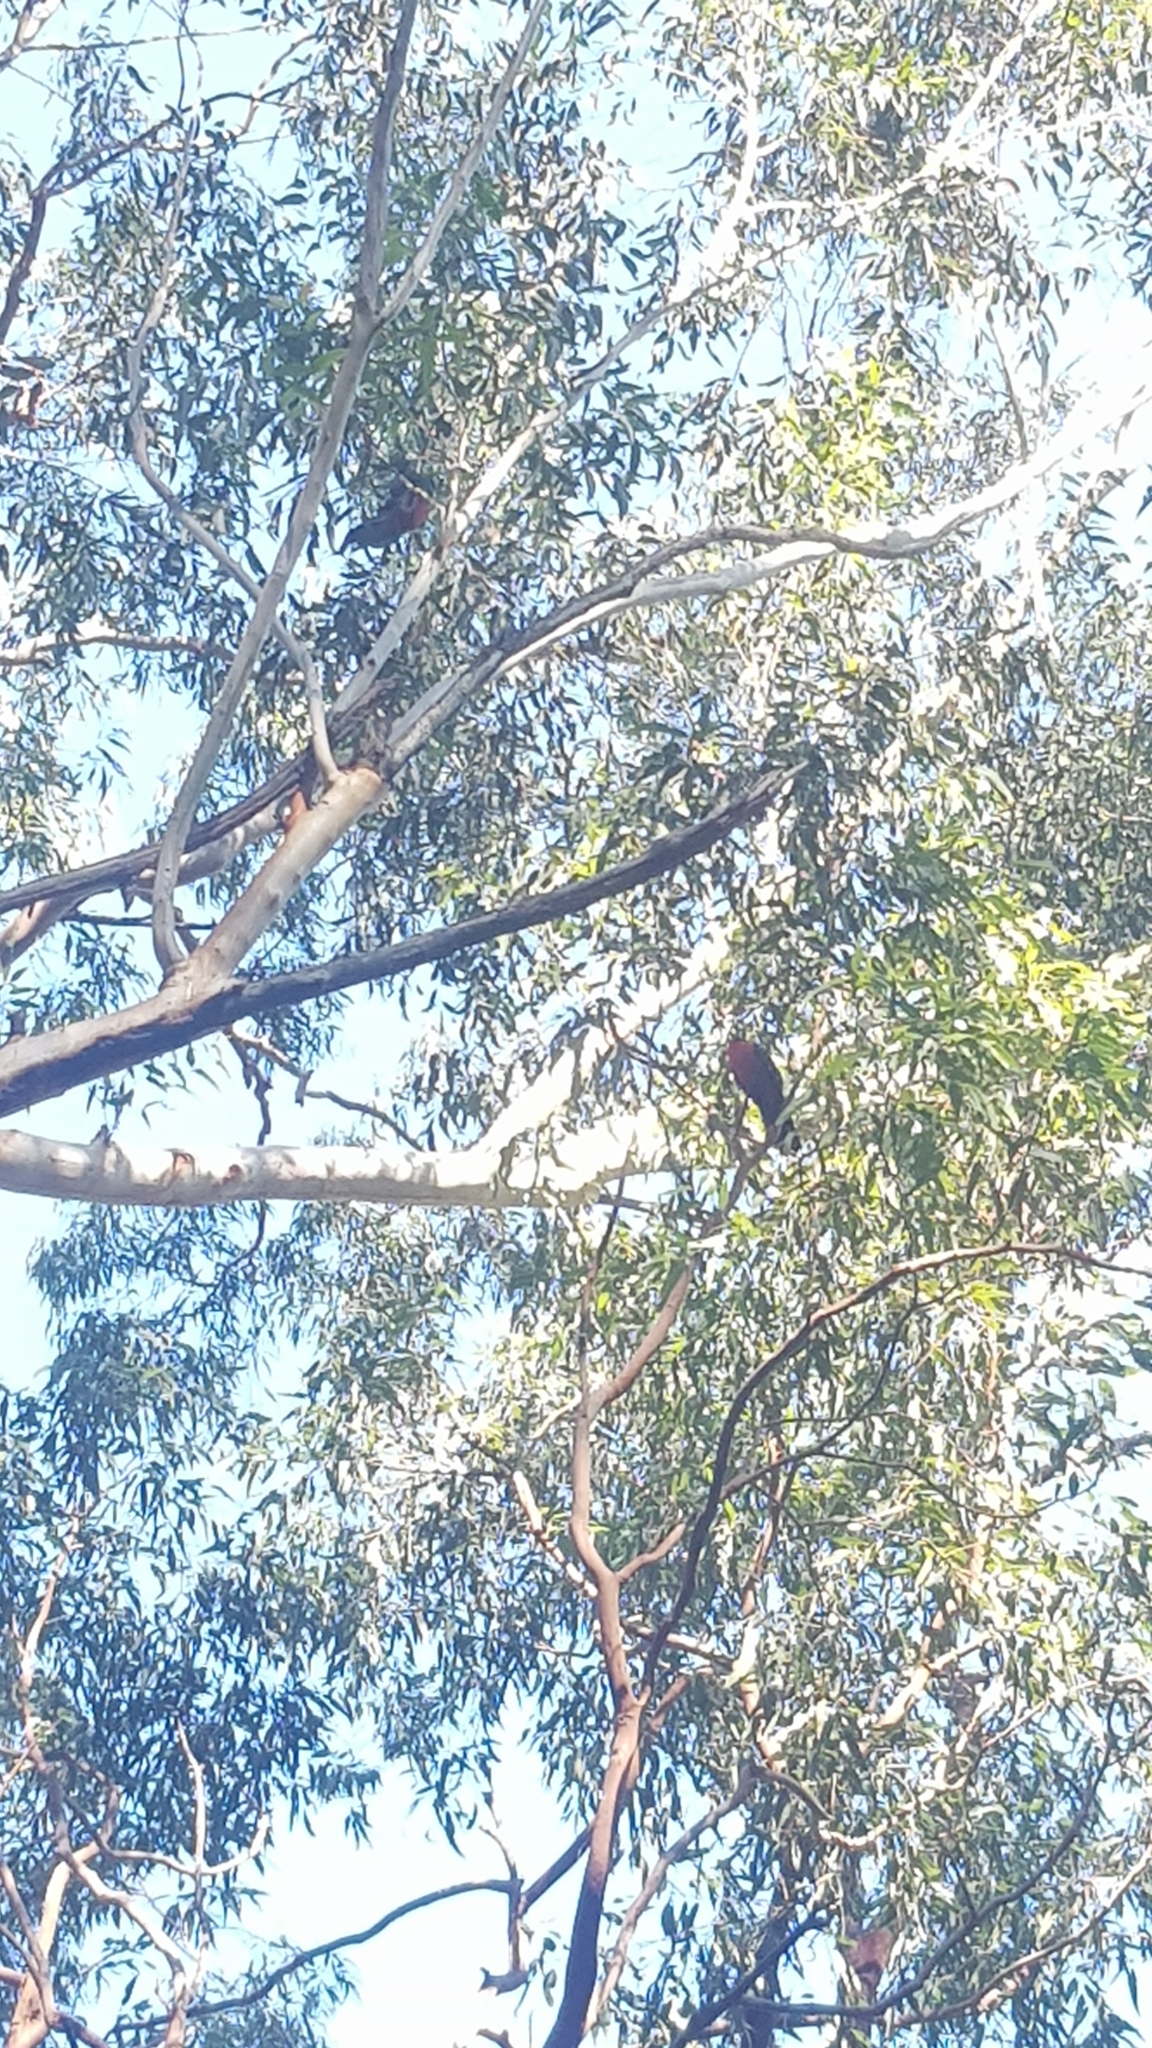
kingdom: Animalia
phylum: Chordata
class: Aves
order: Psittaciformes
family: Psittacidae
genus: Alisterus
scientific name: Alisterus scapularis
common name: Australian king parrot
